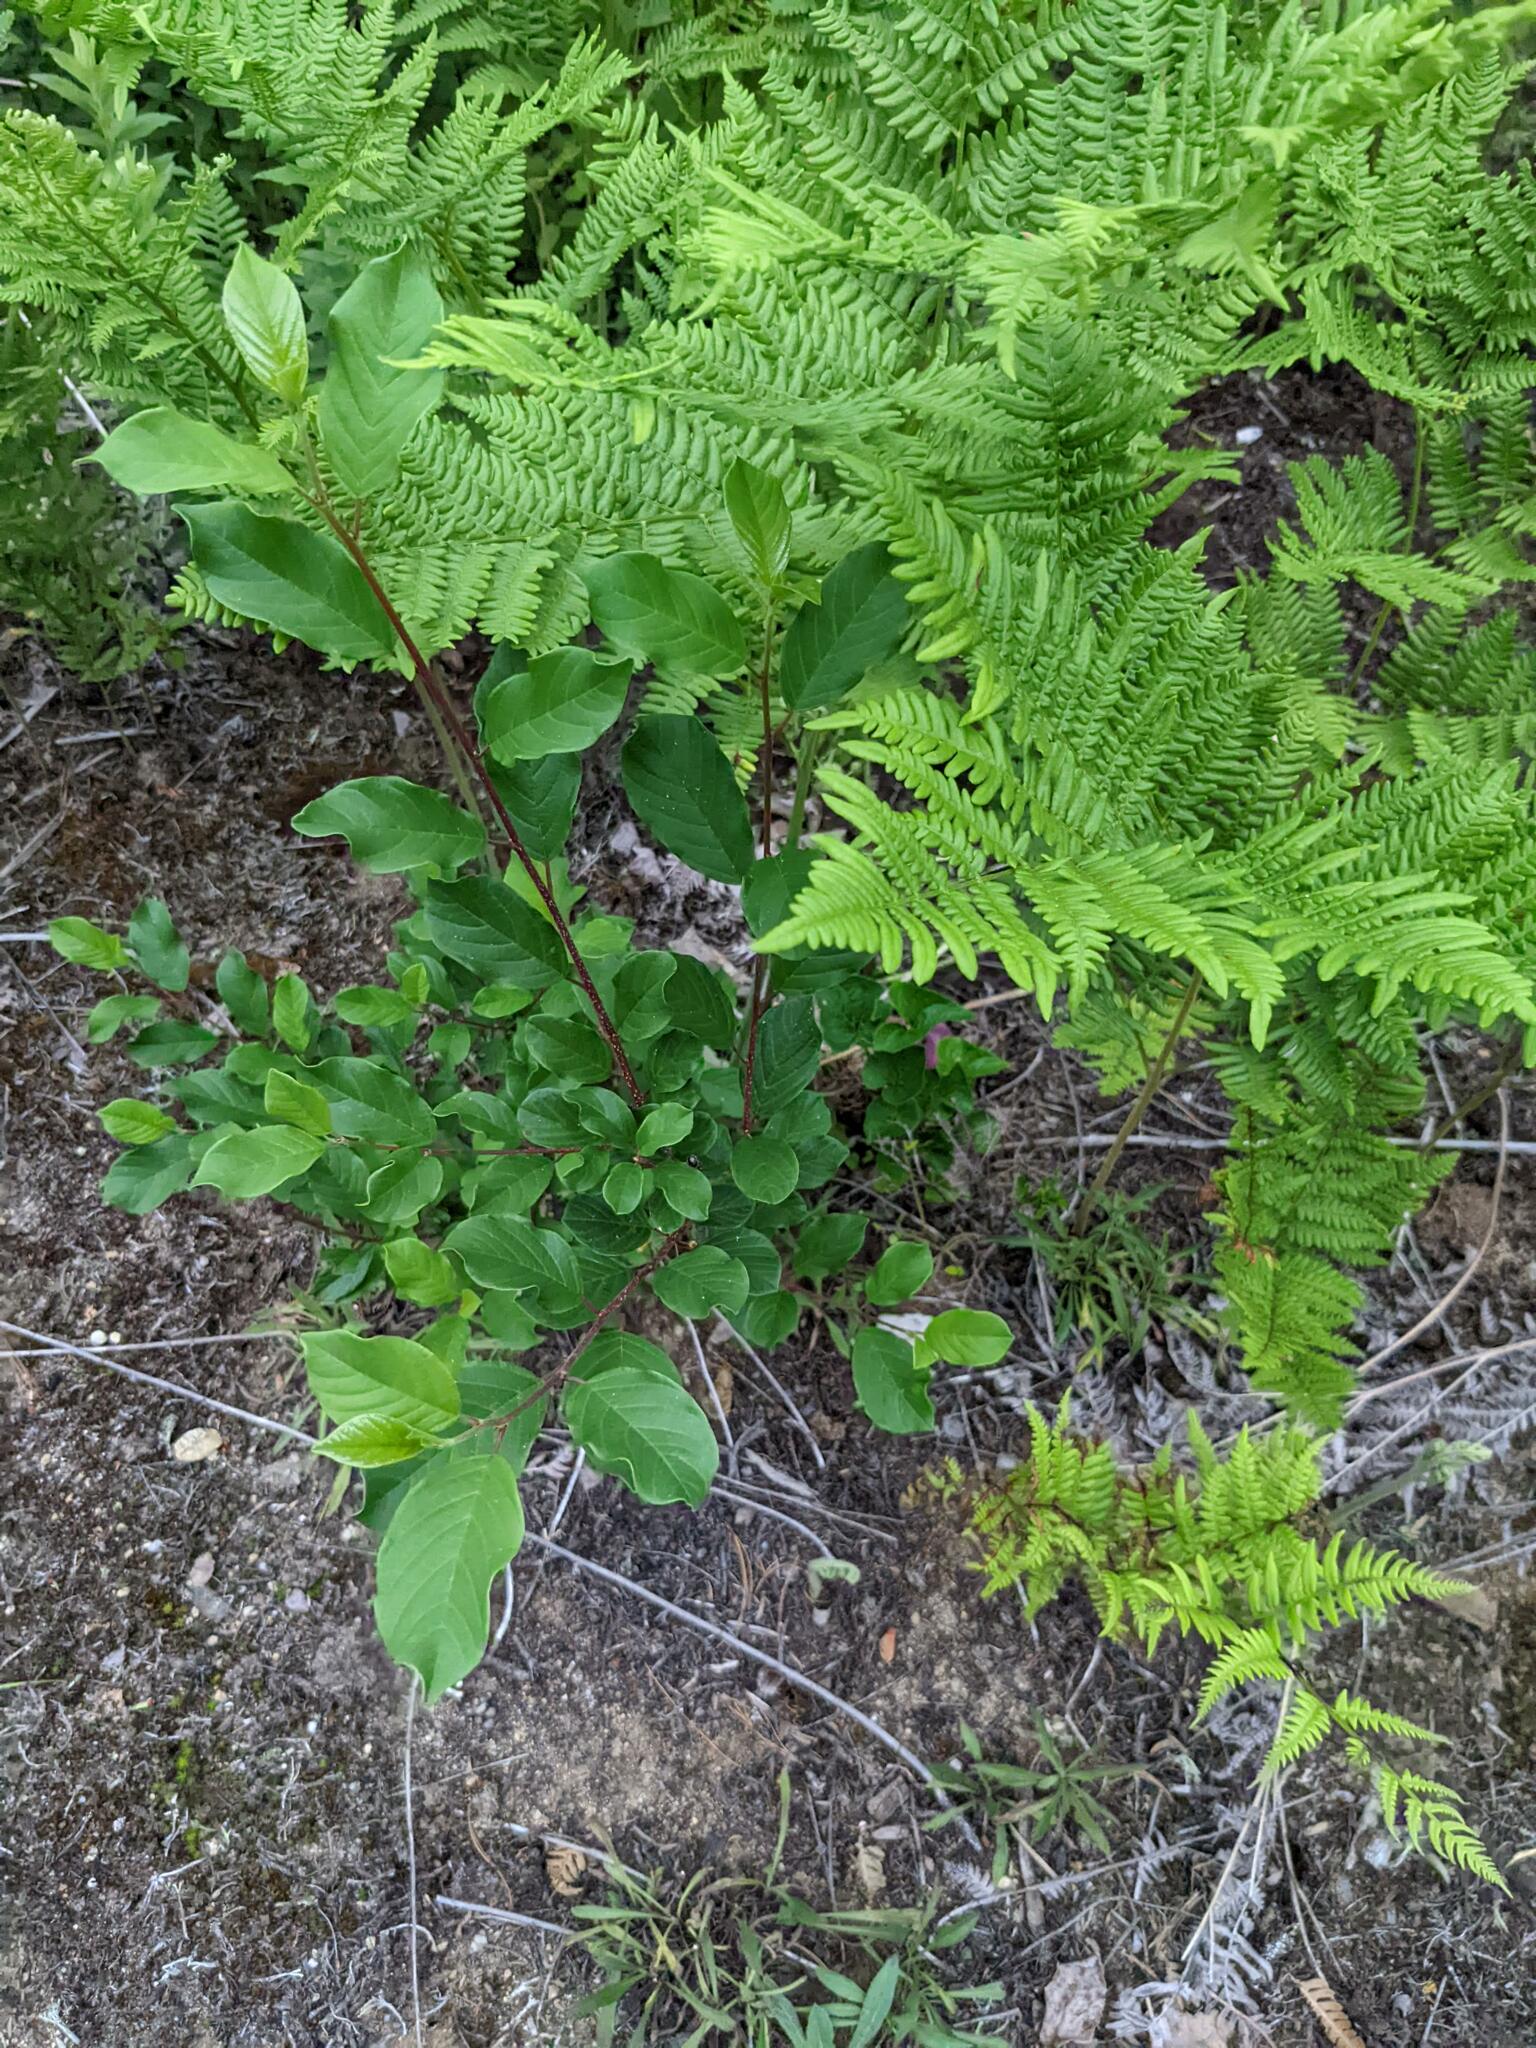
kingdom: Plantae
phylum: Tracheophyta
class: Magnoliopsida
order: Rosales
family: Rhamnaceae
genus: Frangula
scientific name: Frangula alnus
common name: Alder buckthorn
